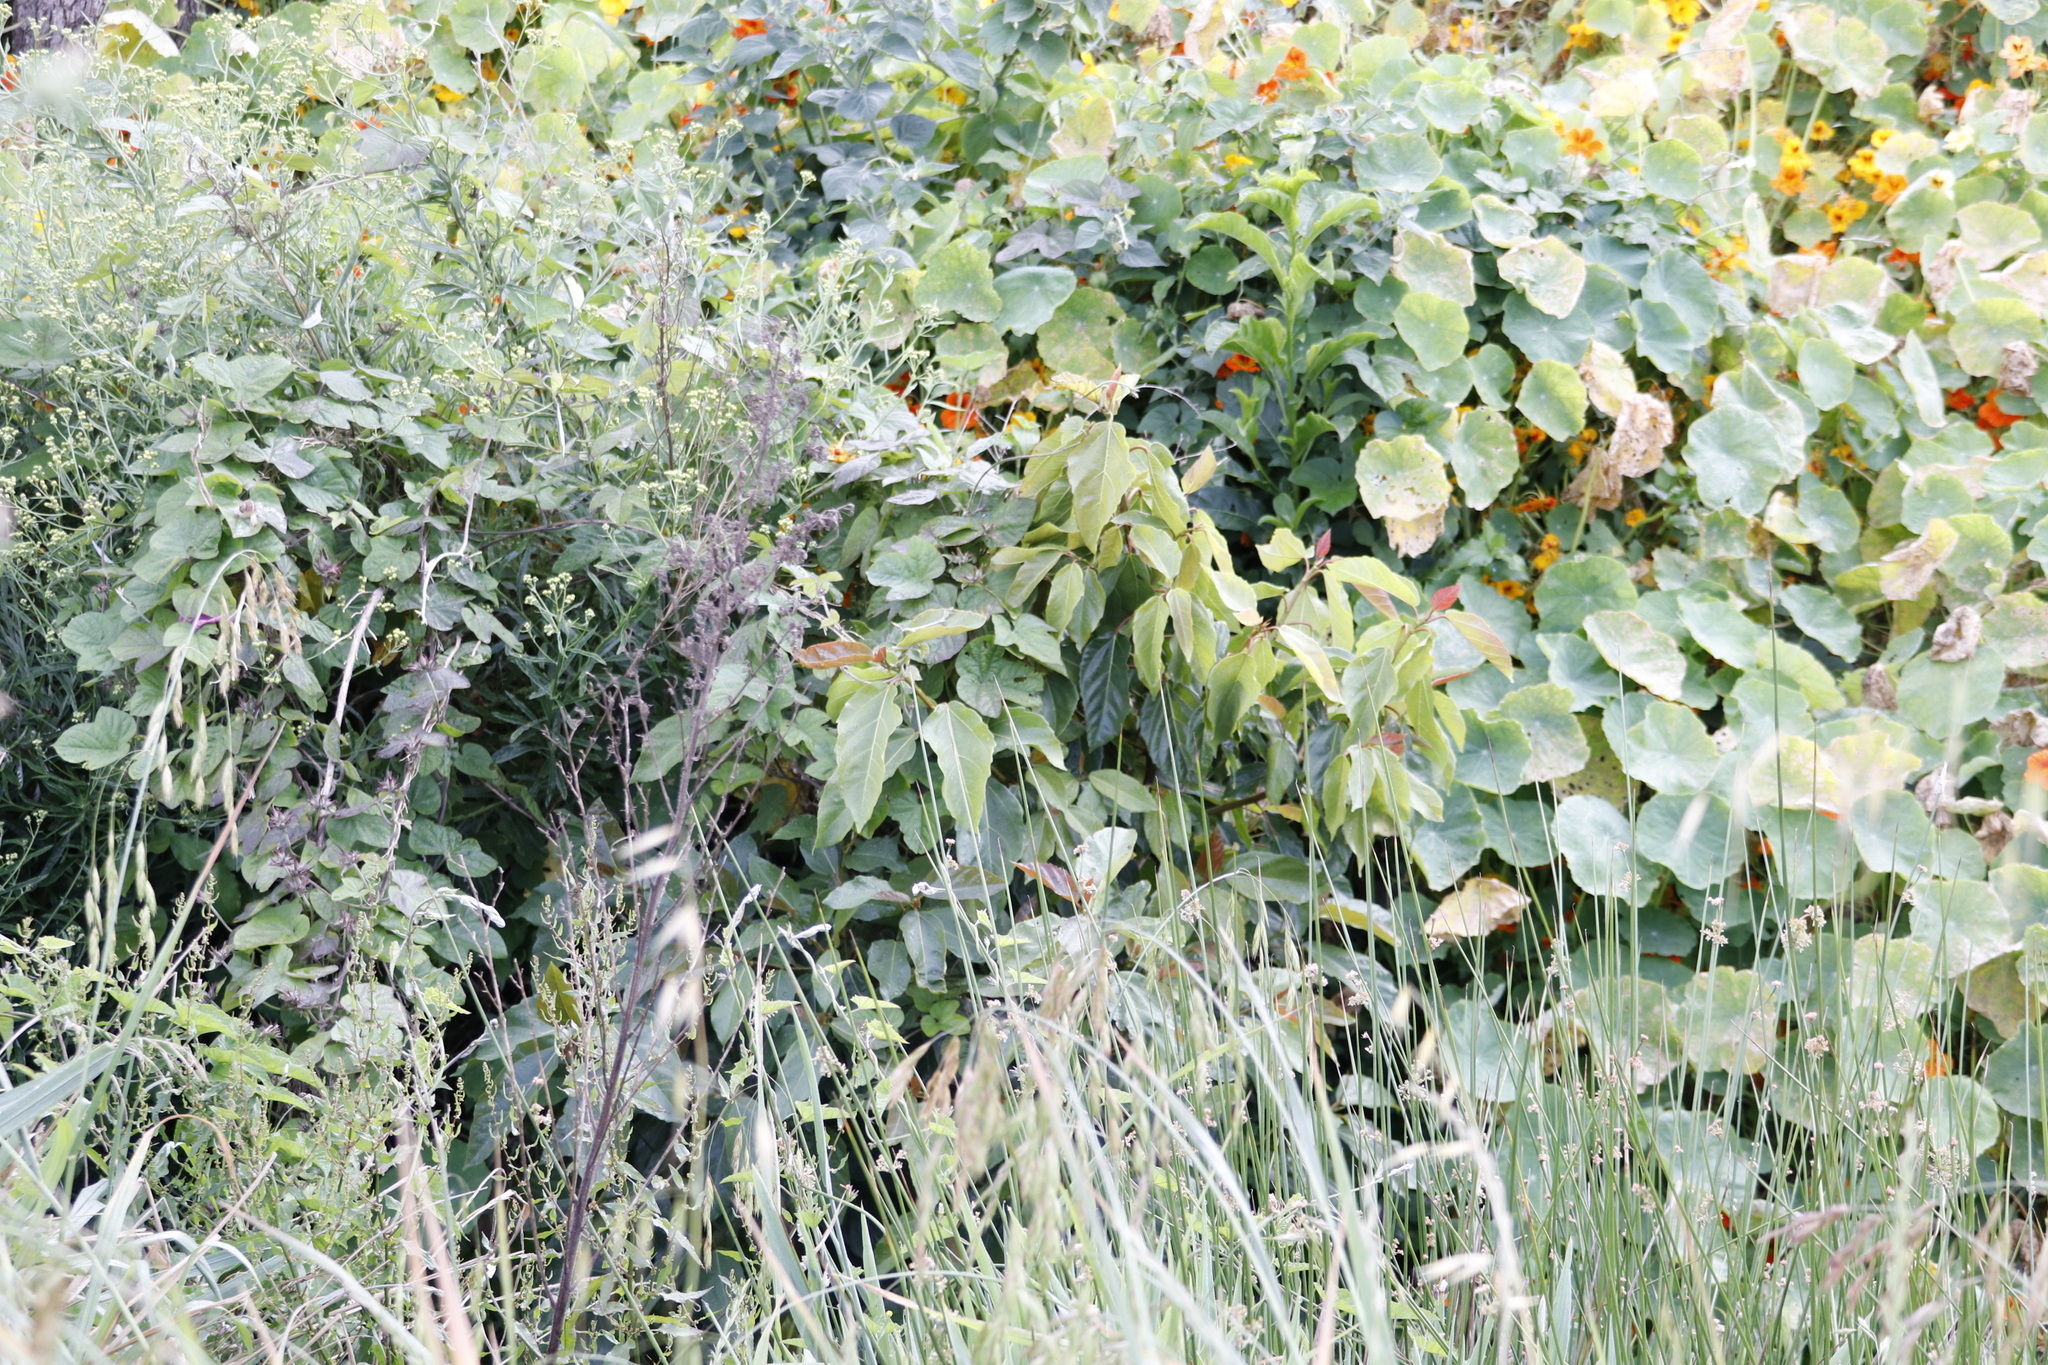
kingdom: Plantae
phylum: Tracheophyta
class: Magnoliopsida
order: Rosales
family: Moraceae
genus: Ficus
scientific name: Ficus sur
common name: Cape fig
